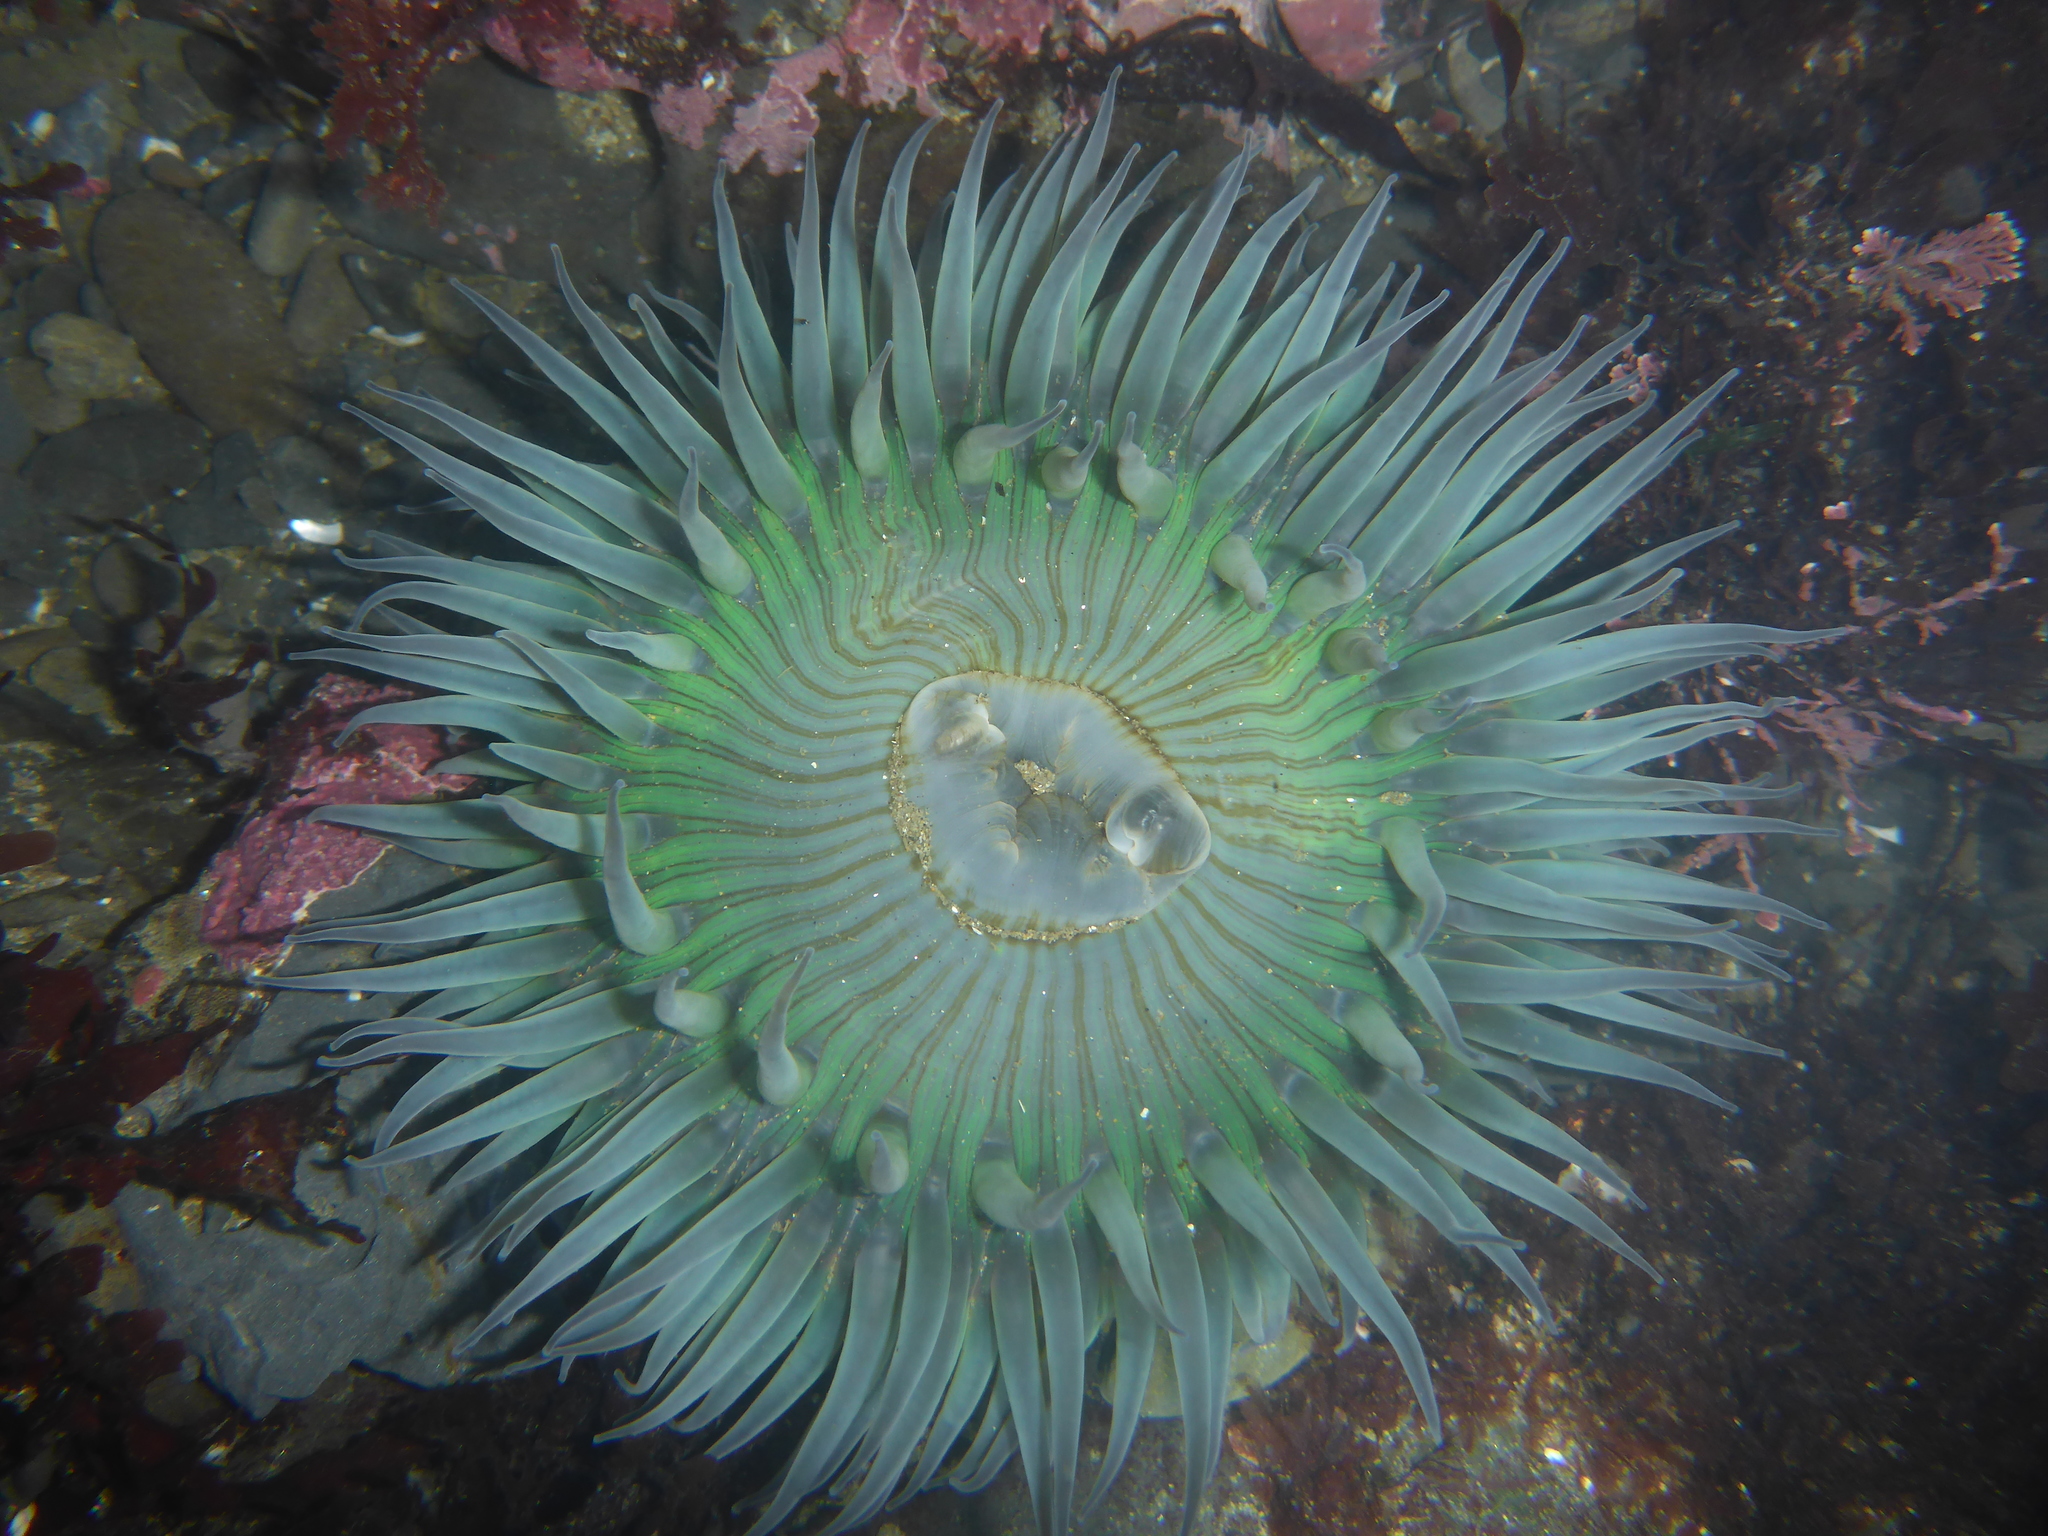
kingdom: Animalia
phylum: Cnidaria
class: Anthozoa
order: Actiniaria
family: Actiniidae
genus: Anthopleura
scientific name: Anthopleura sola
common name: Sun anemone
